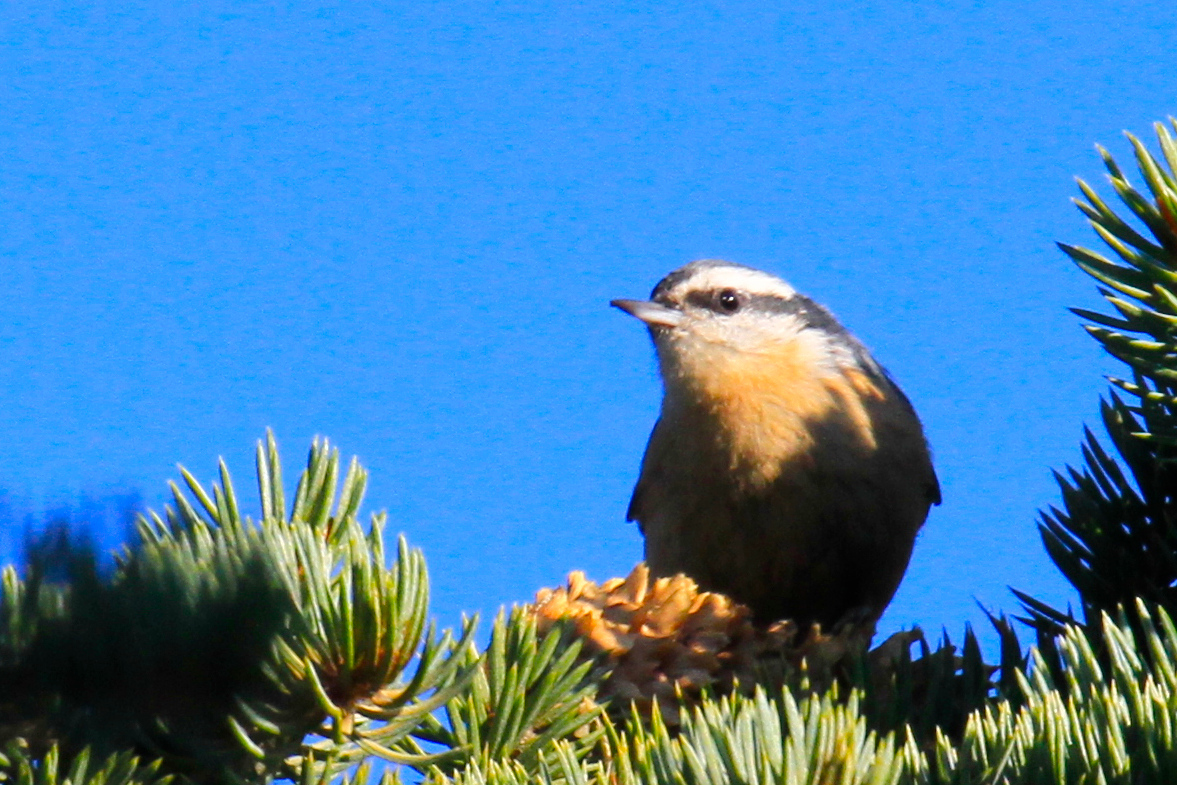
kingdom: Animalia
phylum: Chordata
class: Aves
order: Passeriformes
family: Sittidae
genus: Sitta
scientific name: Sitta canadensis
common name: Red-breasted nuthatch
